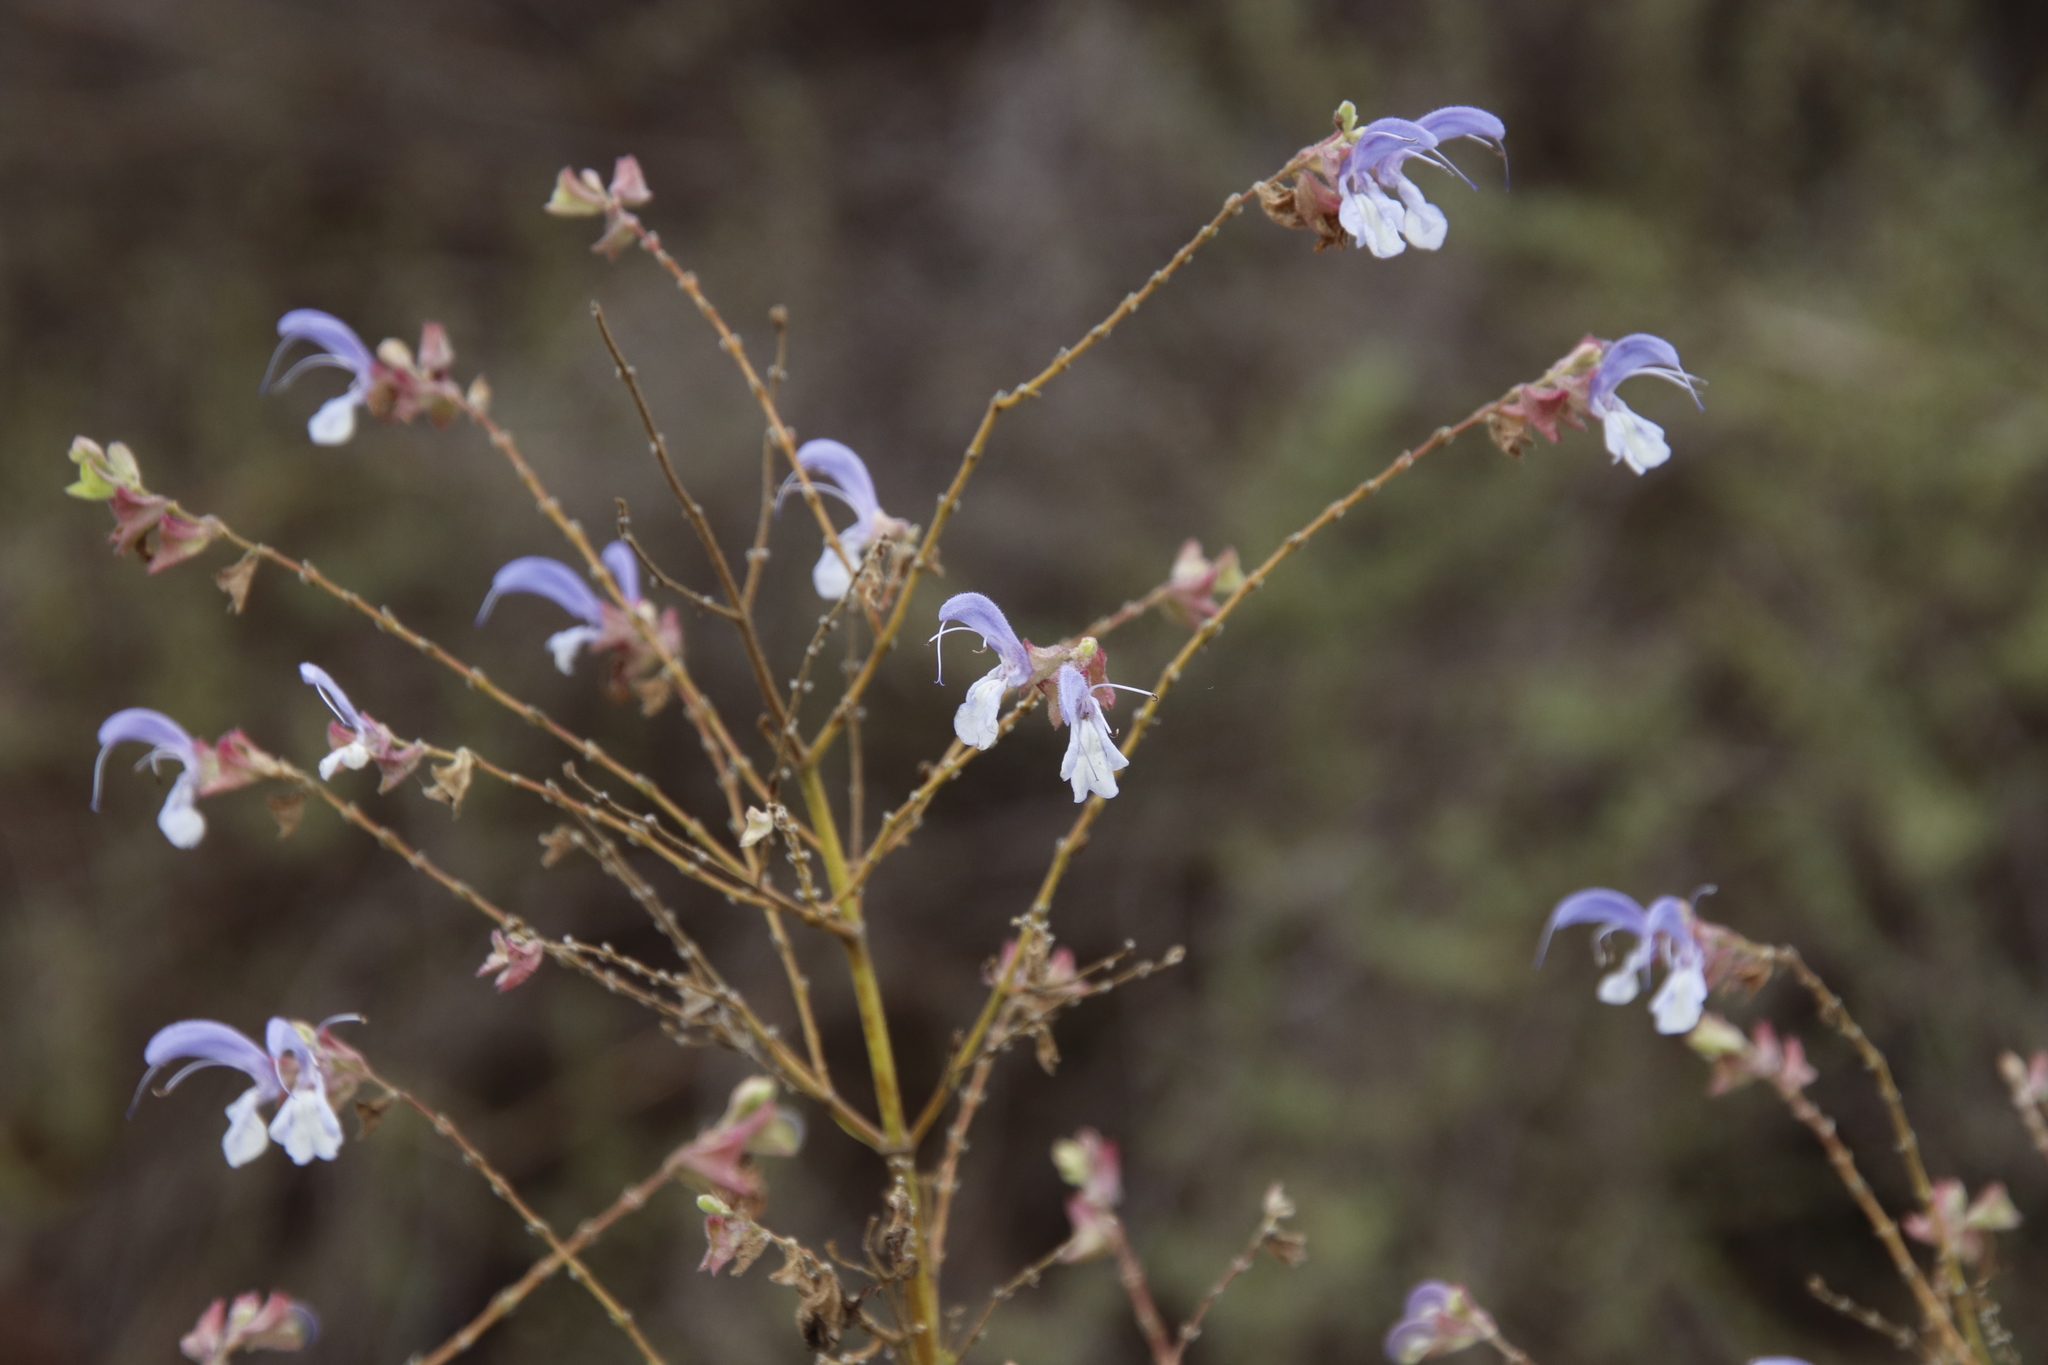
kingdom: Plantae
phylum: Tracheophyta
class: Magnoliopsida
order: Lamiales
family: Lamiaceae
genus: Salvia
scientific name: Salvia chamelaeagnea
